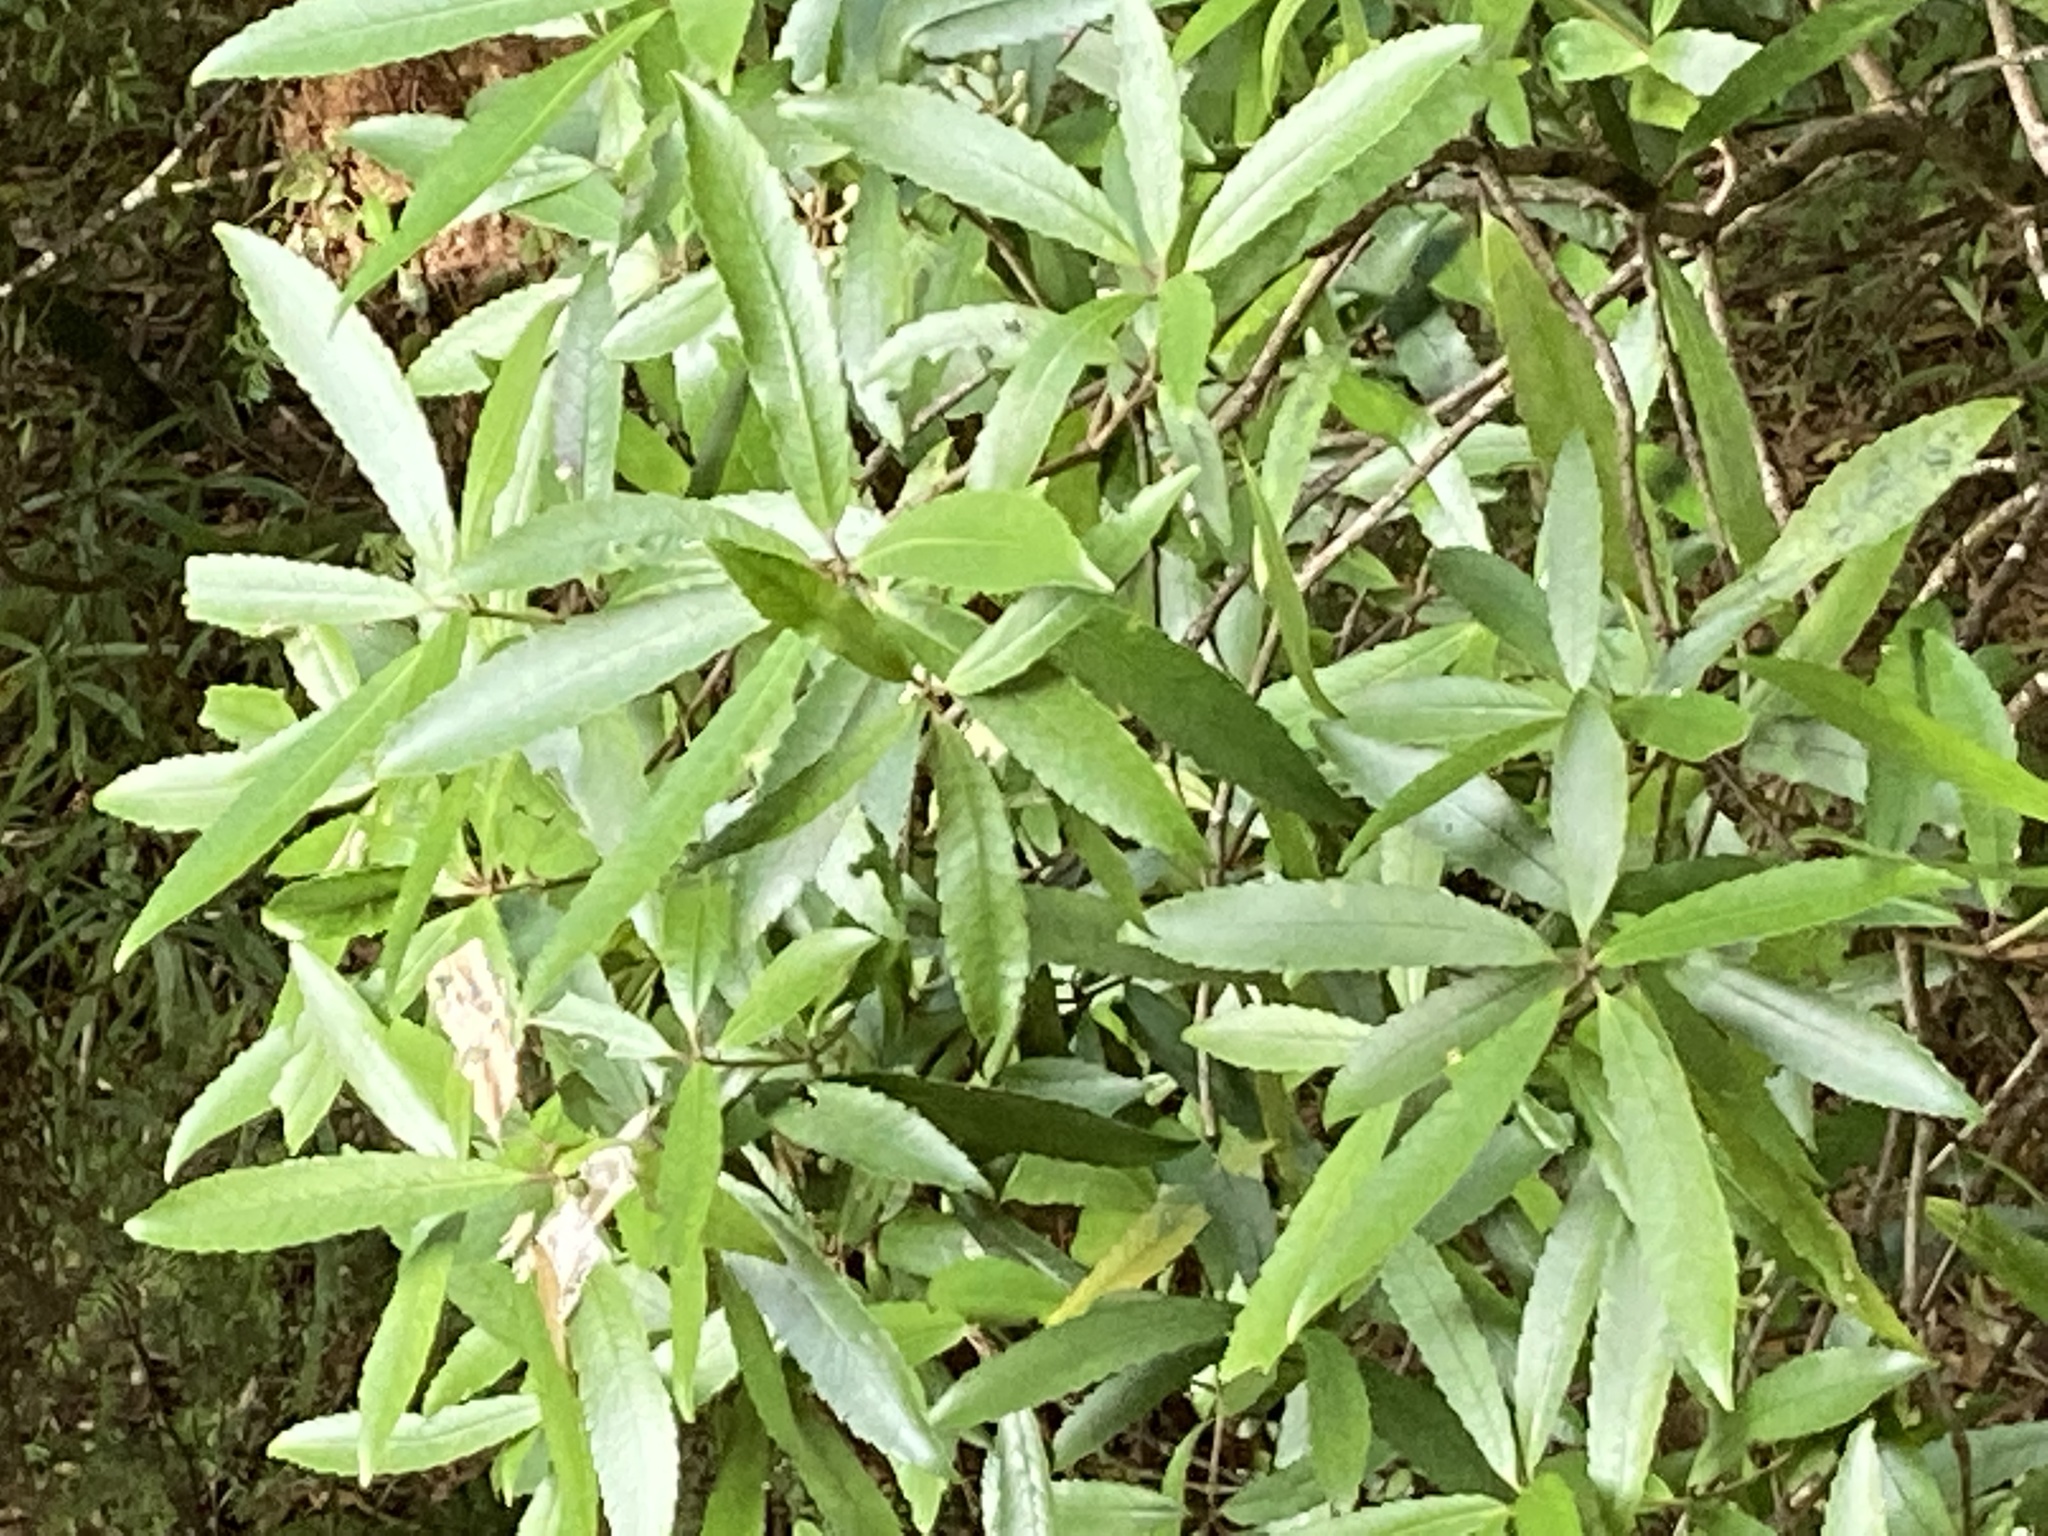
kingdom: Plantae
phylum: Tracheophyta
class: Magnoliopsida
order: Crossosomatales
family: Ixerbaceae
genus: Ixerba
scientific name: Ixerba brexioides
